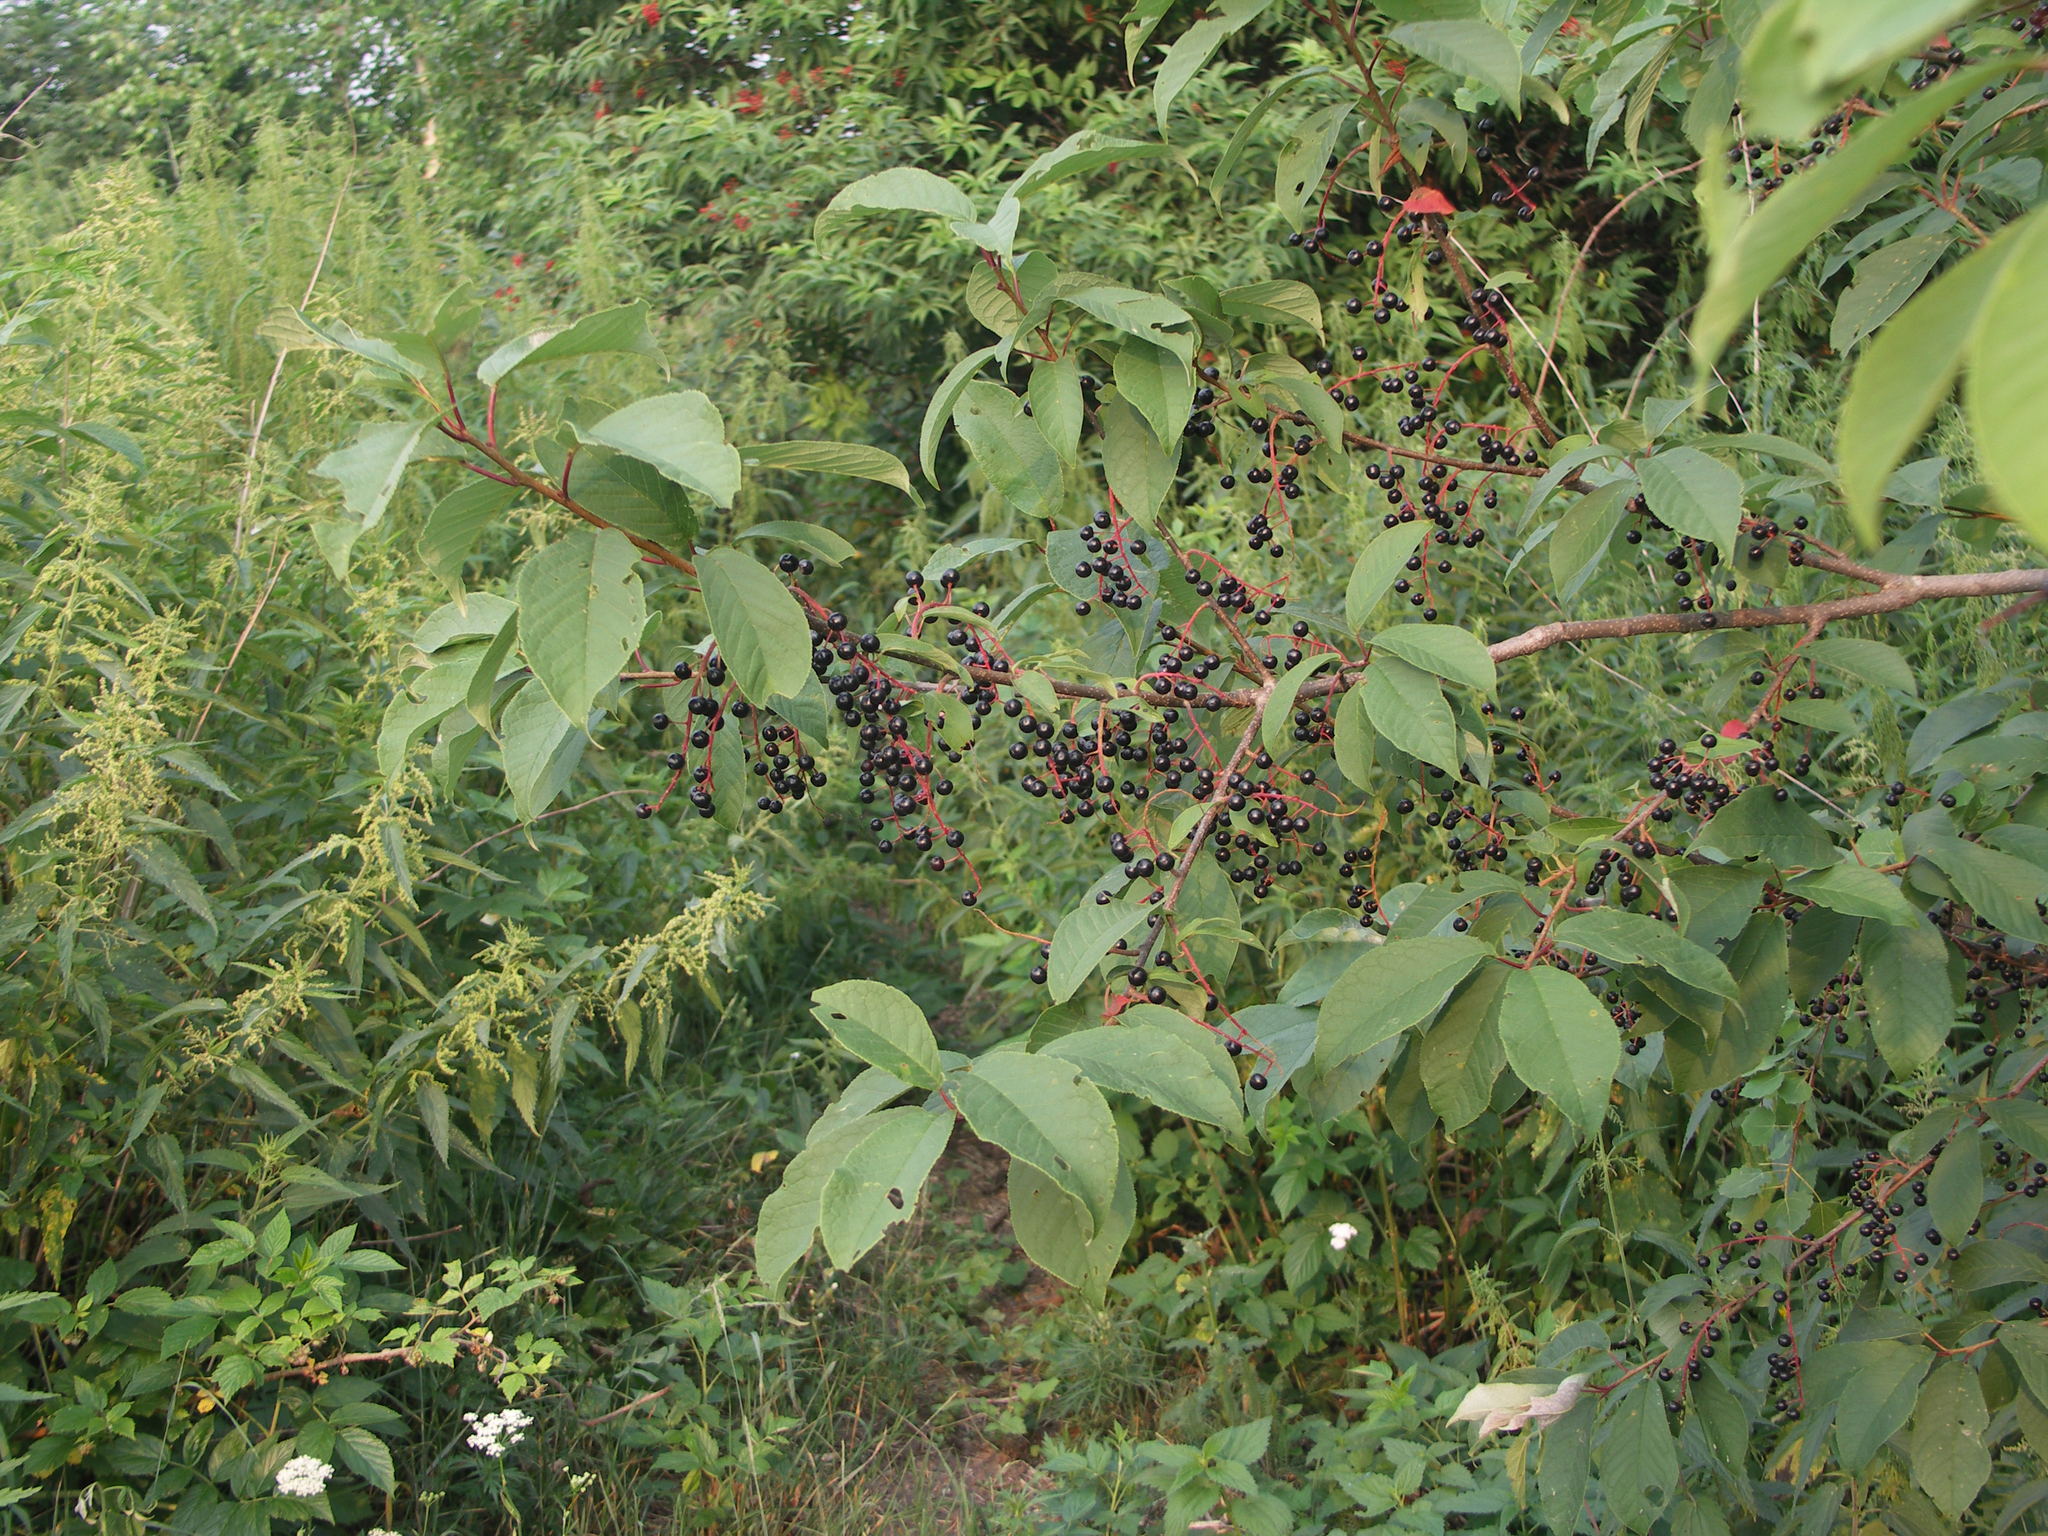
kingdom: Plantae
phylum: Tracheophyta
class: Magnoliopsida
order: Rosales
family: Urticaceae
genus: Urtica
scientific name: Urtica dioica
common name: Common nettle
